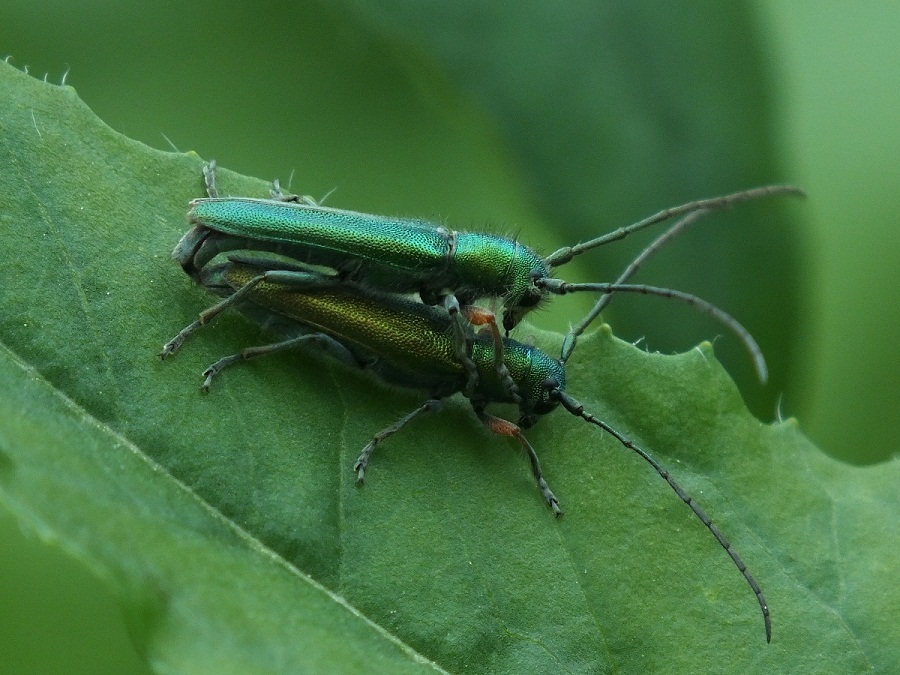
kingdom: Animalia
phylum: Arthropoda
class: Insecta
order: Coleoptera
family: Cerambycidae
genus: Phytoecia
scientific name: Phytoecia caerulea
